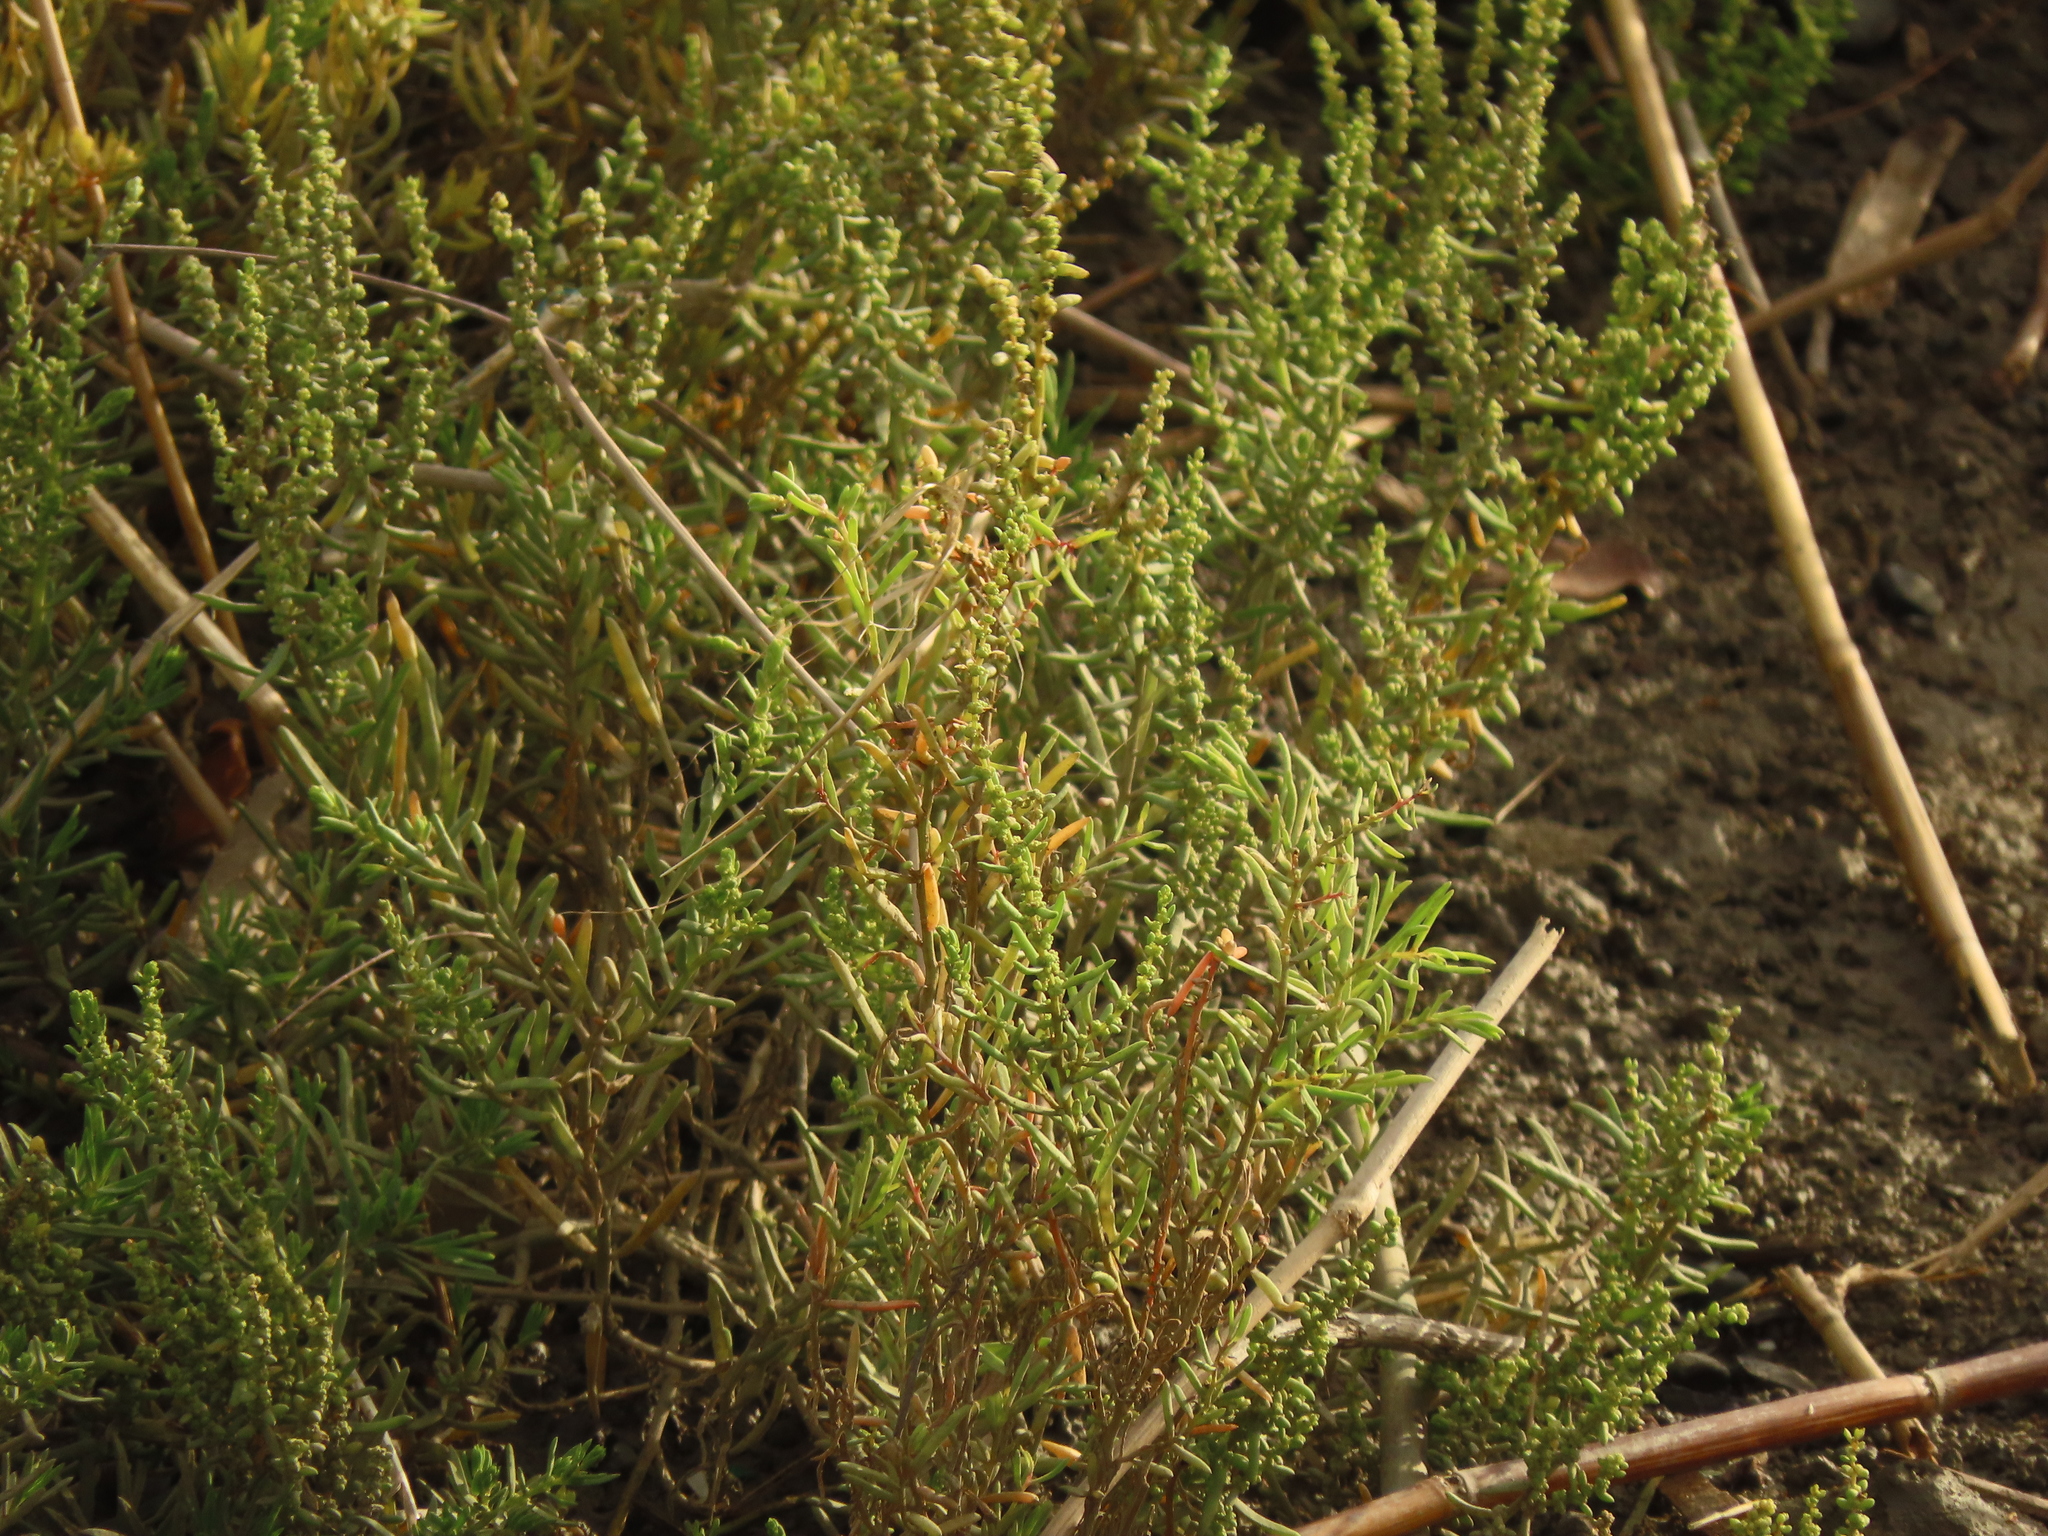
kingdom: Plantae
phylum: Tracheophyta
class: Magnoliopsida
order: Caryophyllales
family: Amaranthaceae
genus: Suaeda
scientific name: Suaeda maritima
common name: Annual sea-blite
